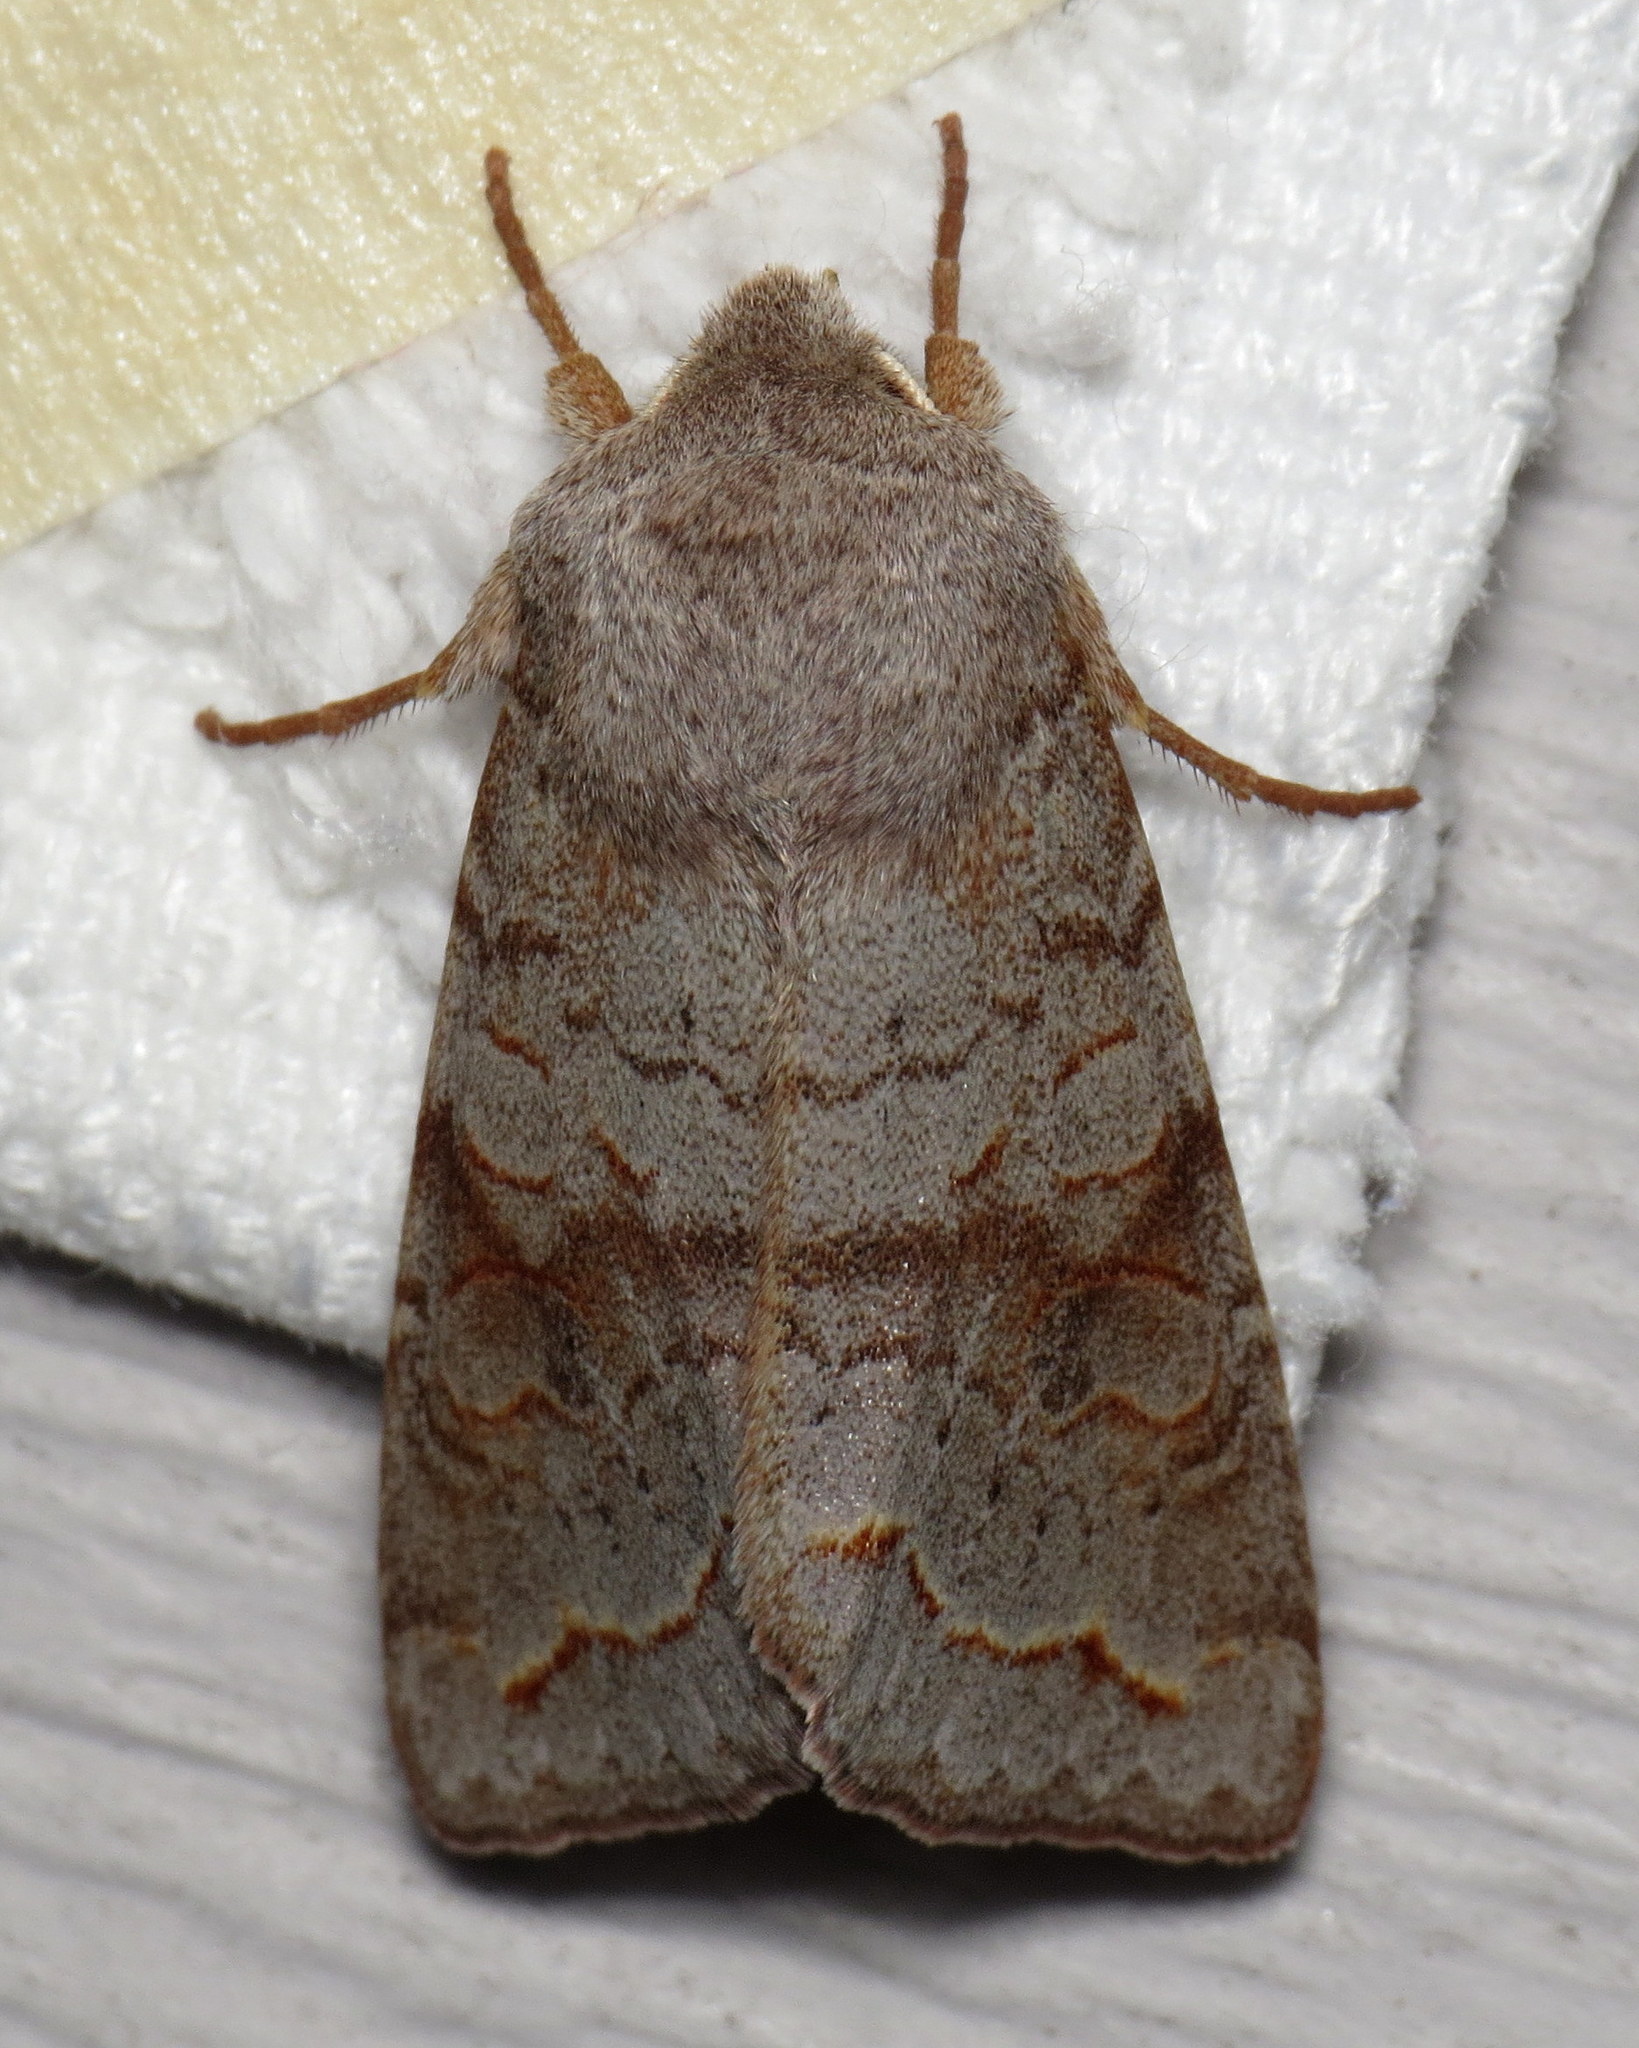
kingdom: Animalia
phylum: Arthropoda
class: Insecta
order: Lepidoptera
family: Noctuidae
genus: Orthosia
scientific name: Orthosia revicta
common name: Rusty whitesided caterpillar
